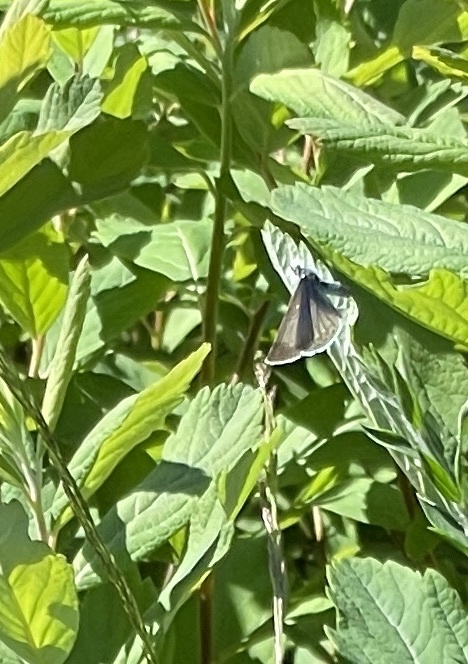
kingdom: Animalia
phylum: Arthropoda
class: Insecta
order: Lepidoptera
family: Lycaenidae
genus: Celastrina
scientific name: Celastrina ladon
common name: Spring azure
